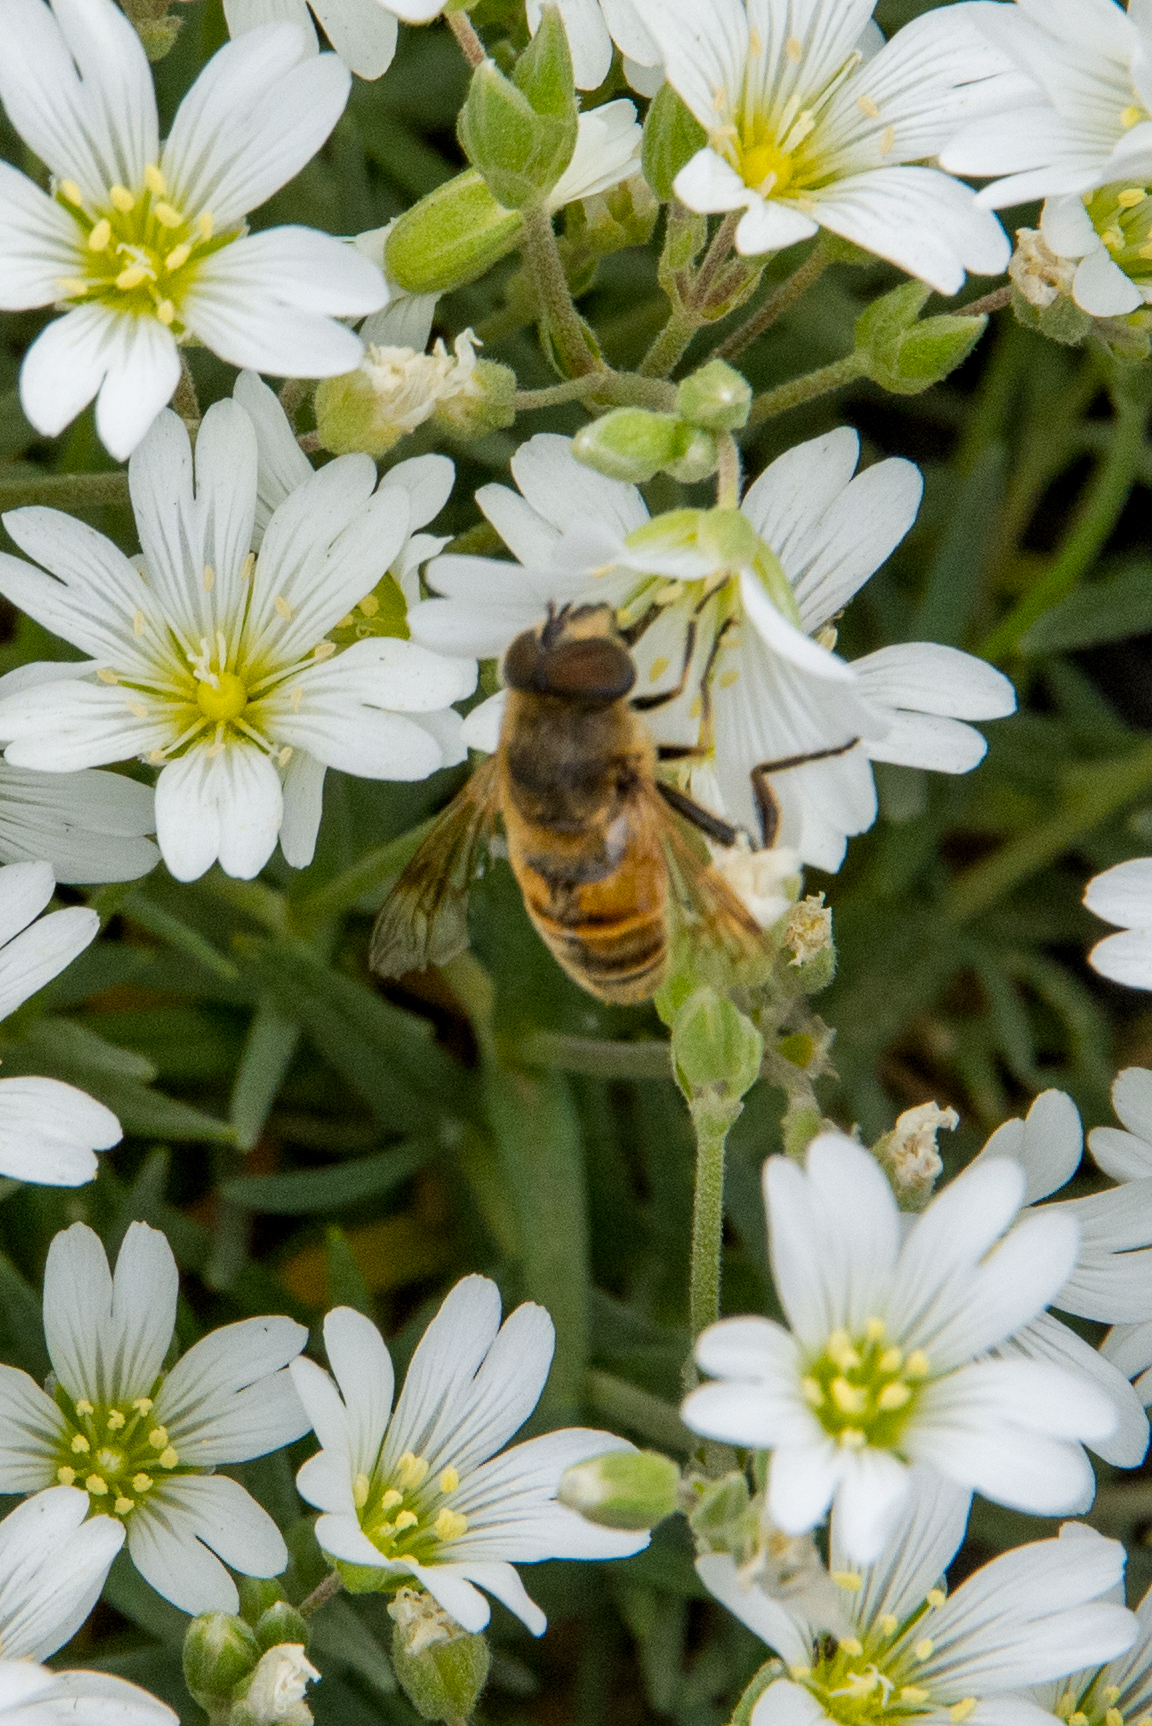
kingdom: Animalia
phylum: Arthropoda
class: Insecta
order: Diptera
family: Syrphidae
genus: Eristalis
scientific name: Eristalis tenax
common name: Drone fly
